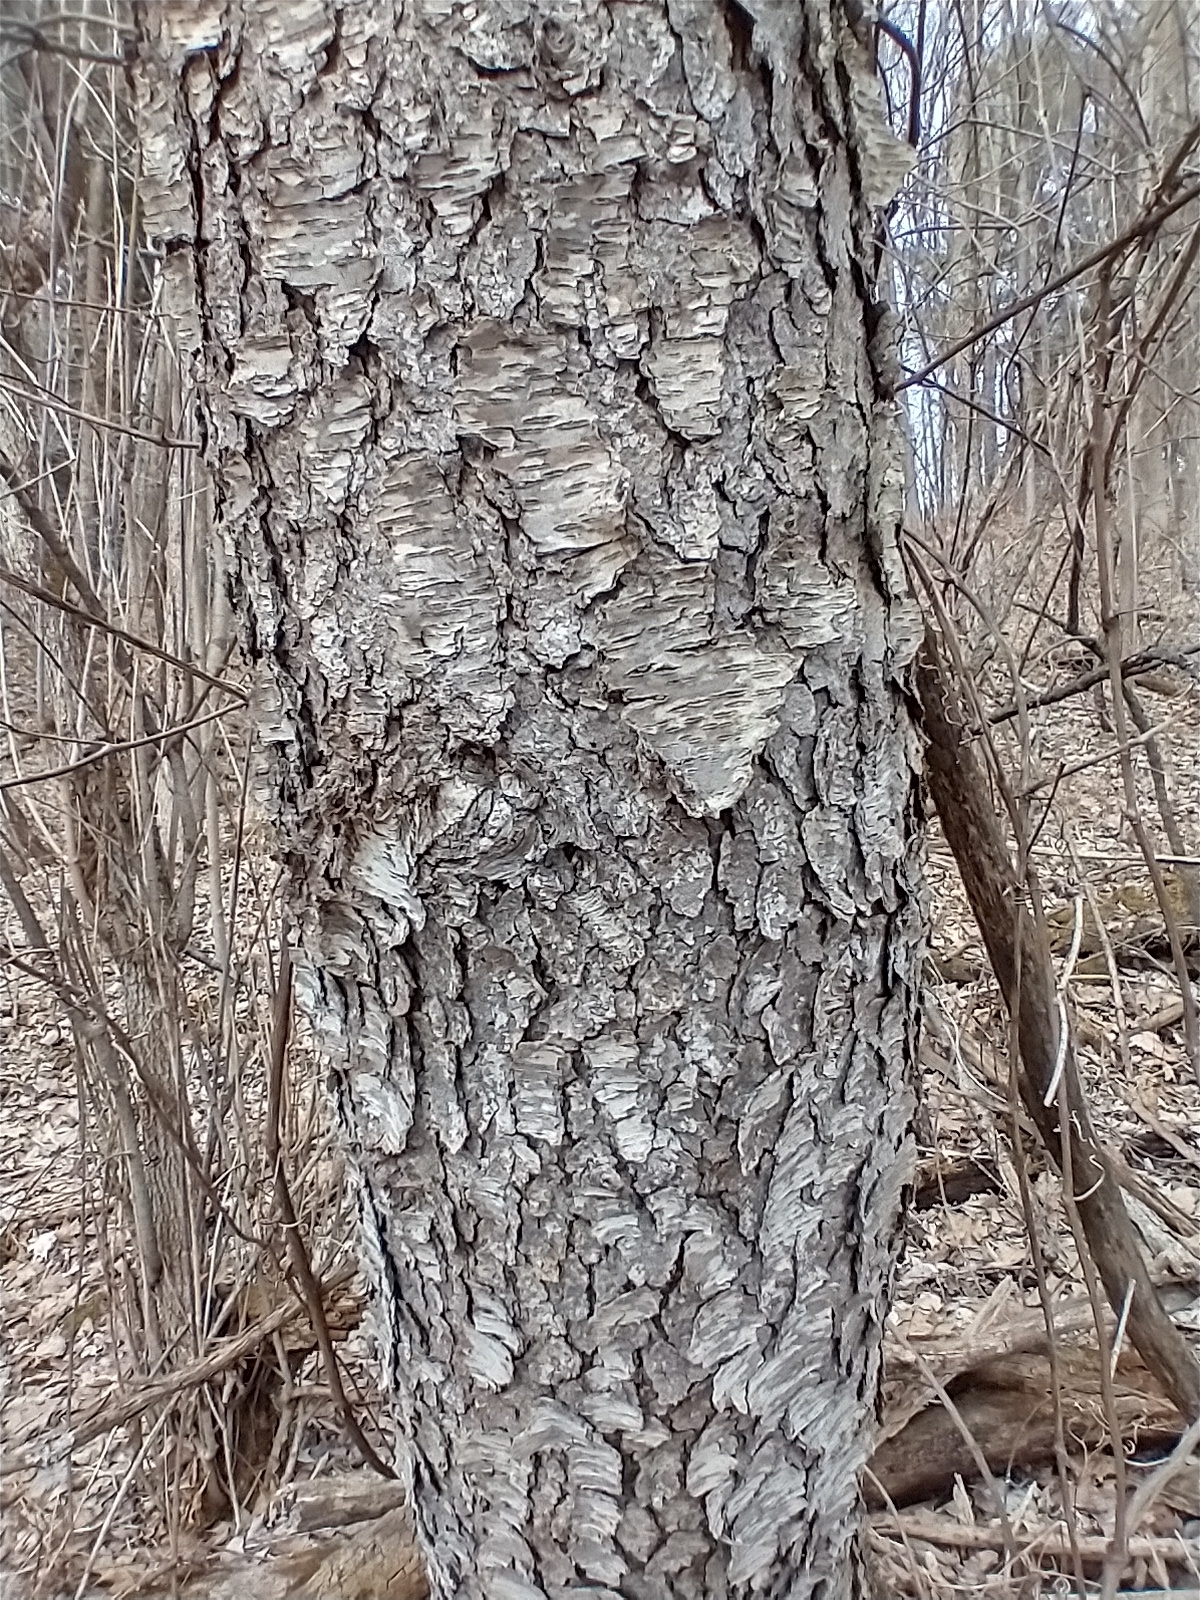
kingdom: Plantae
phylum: Tracheophyta
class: Magnoliopsida
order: Rosales
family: Rosaceae
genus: Prunus
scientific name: Prunus serotina
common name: Black cherry
